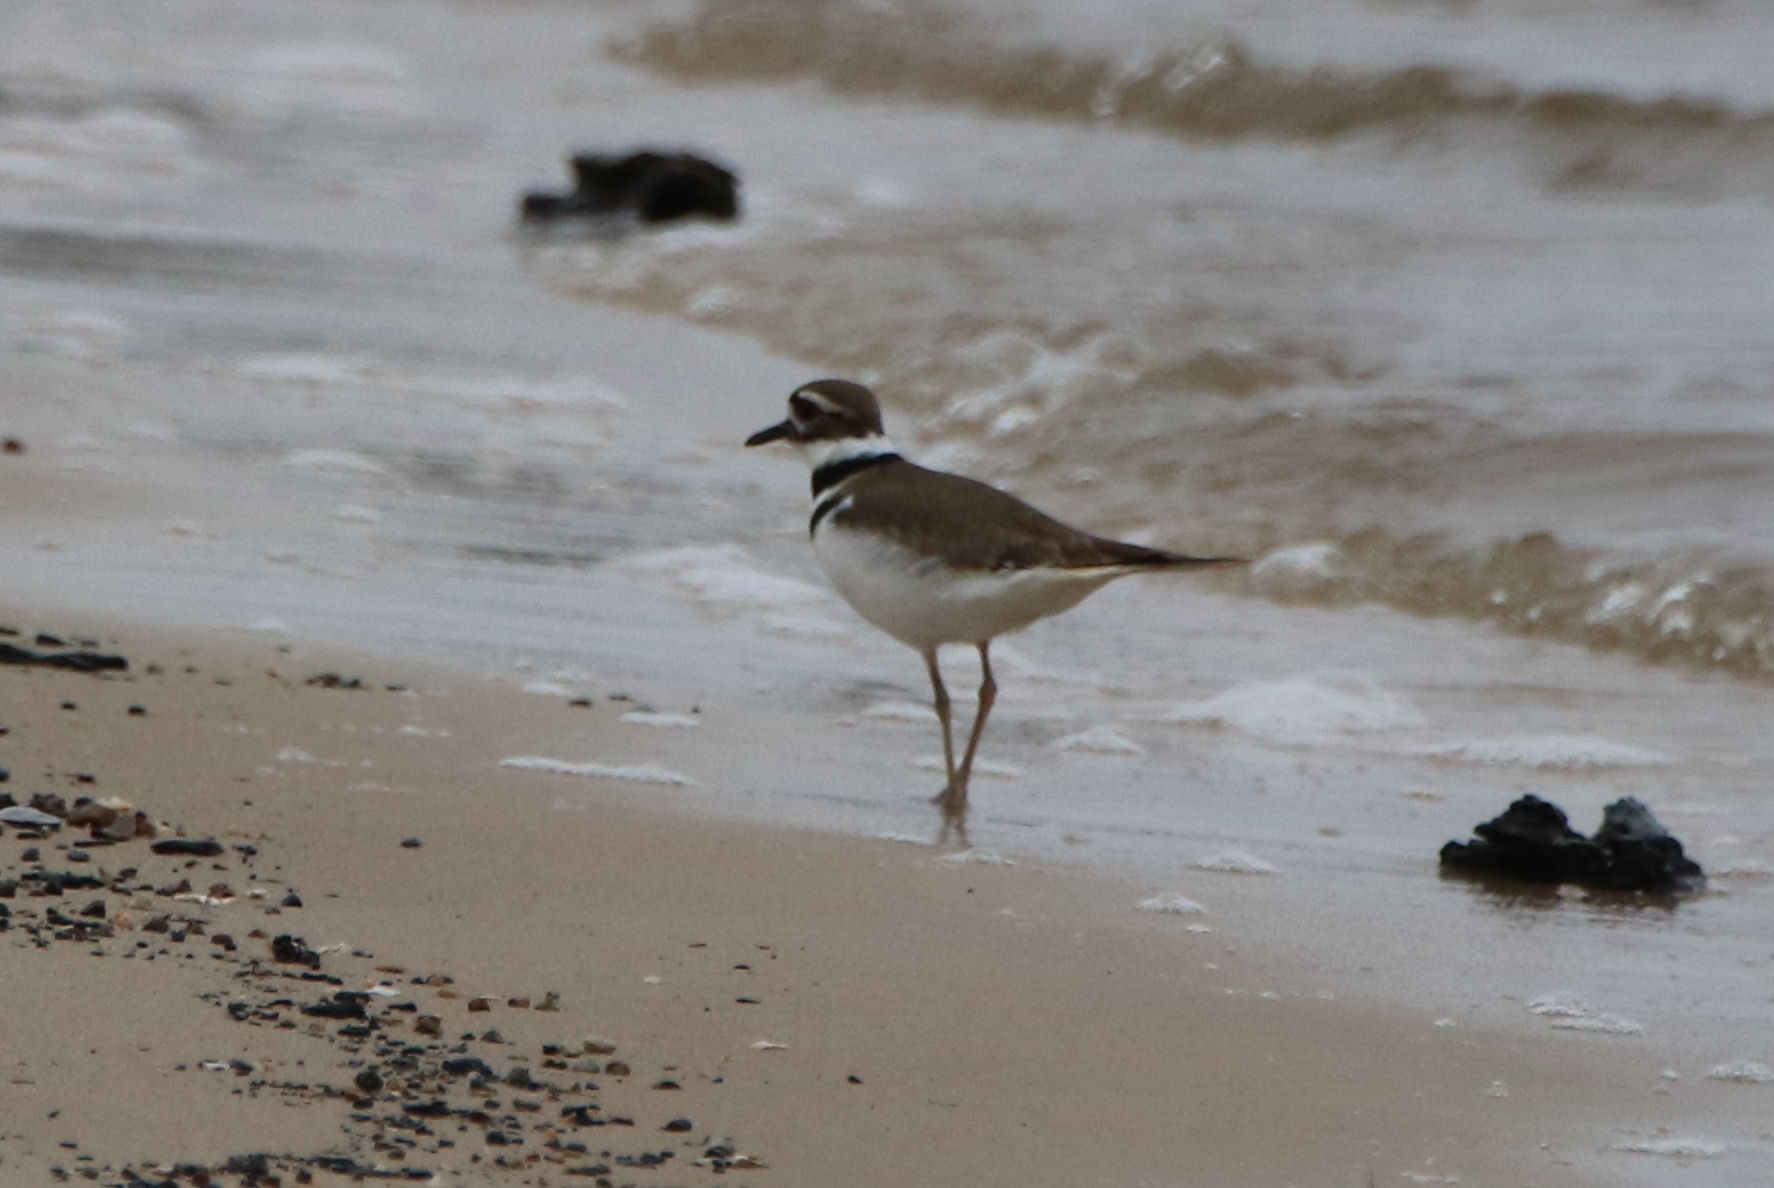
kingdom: Animalia
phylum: Chordata
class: Aves
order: Charadriiformes
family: Charadriidae
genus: Charadrius
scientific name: Charadrius vociferus
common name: Killdeer
